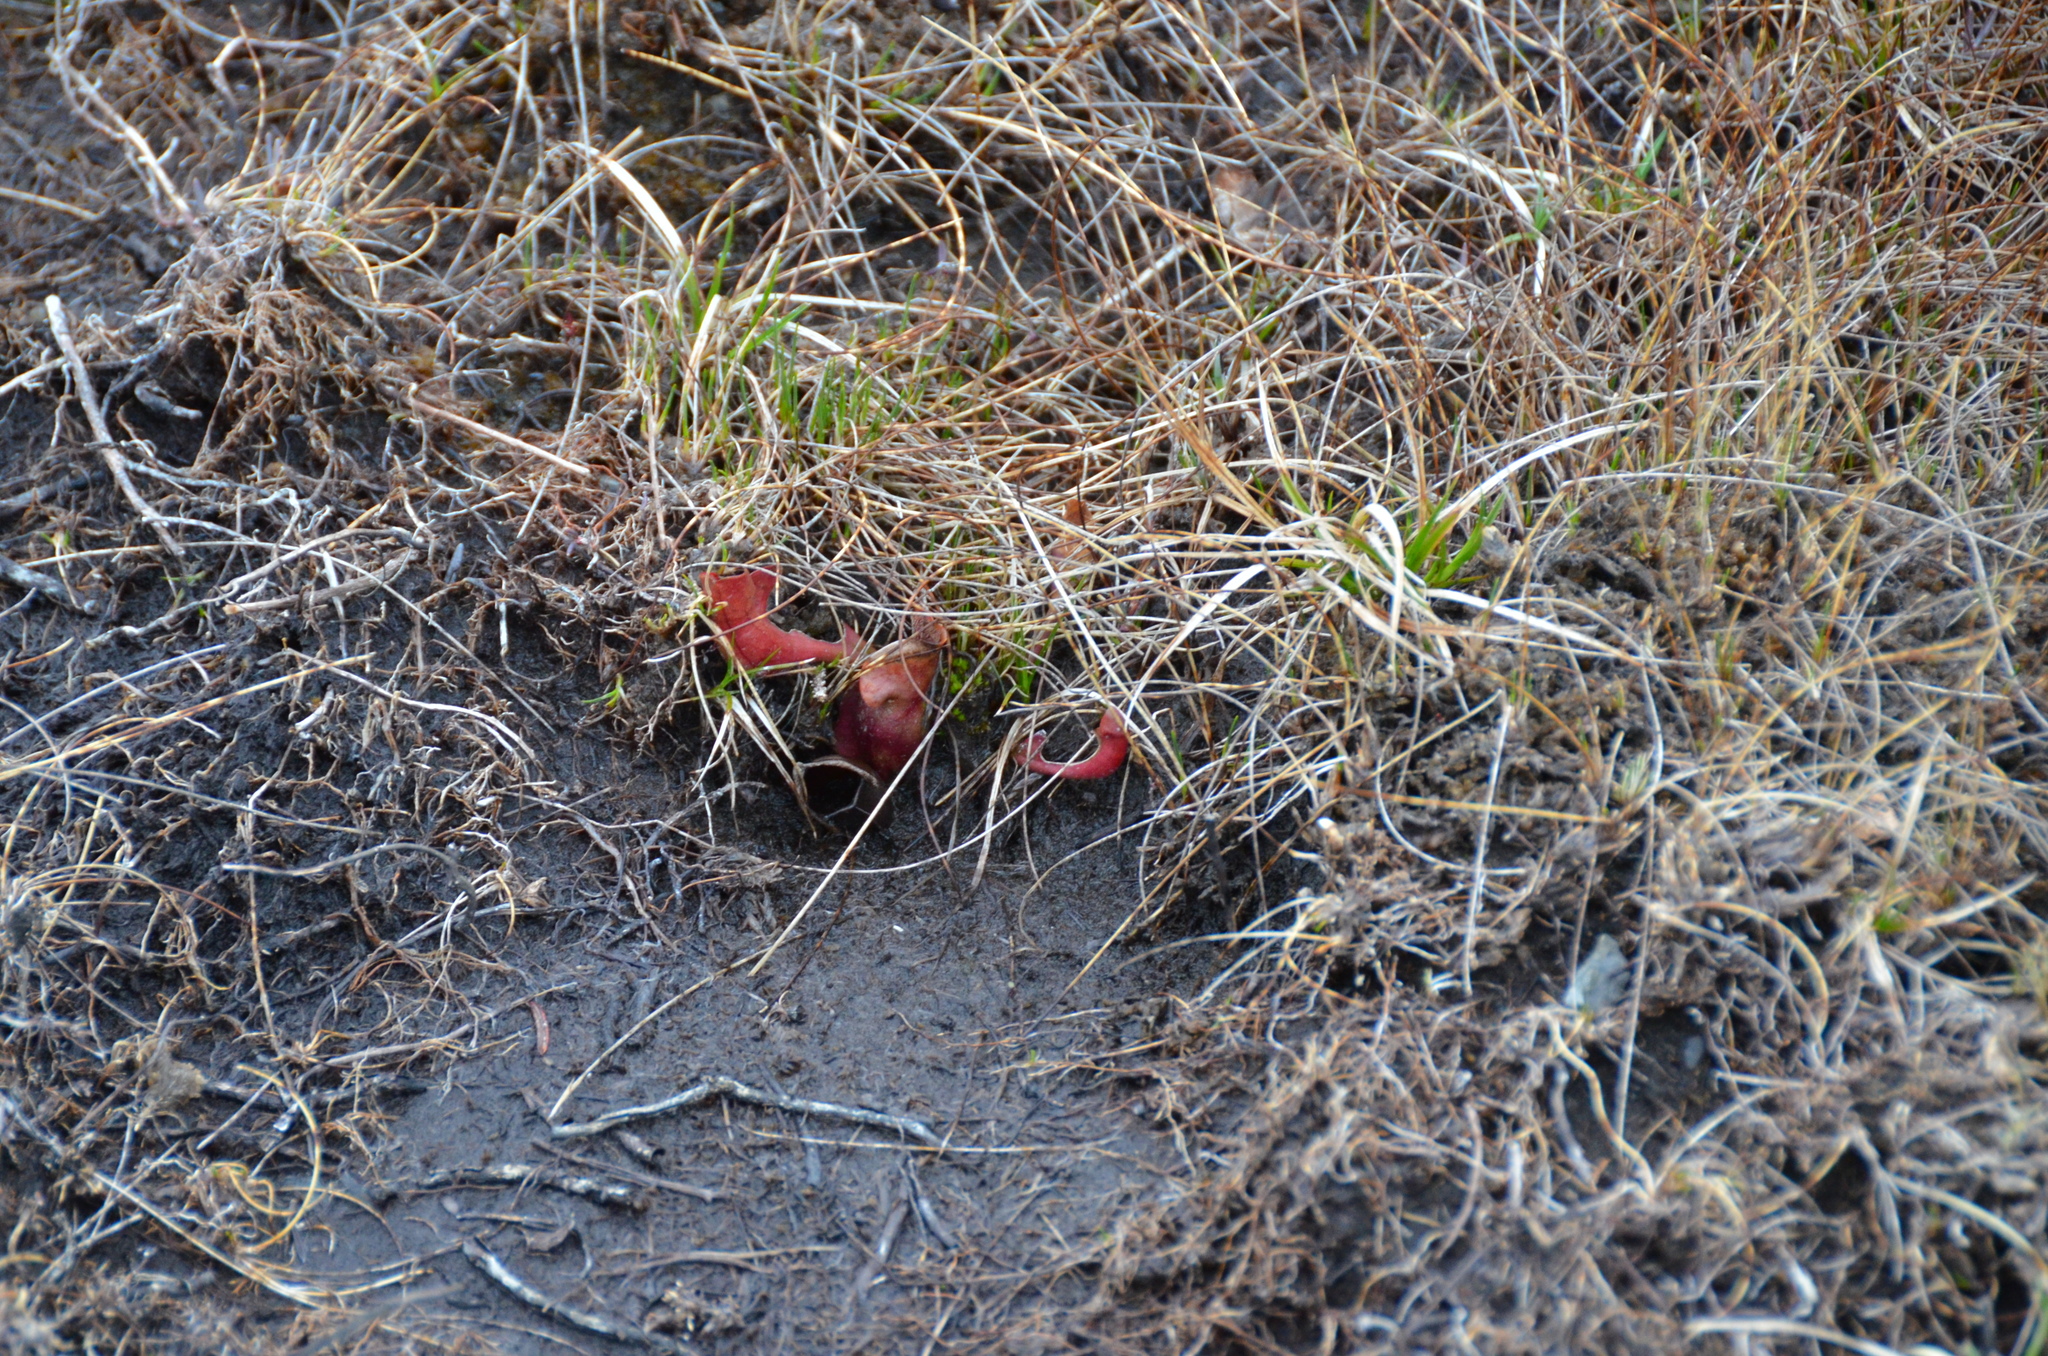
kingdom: Plantae
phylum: Tracheophyta
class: Magnoliopsida
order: Ericales
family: Sarraceniaceae
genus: Sarracenia
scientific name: Sarracenia purpurea
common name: Pitcherplant
